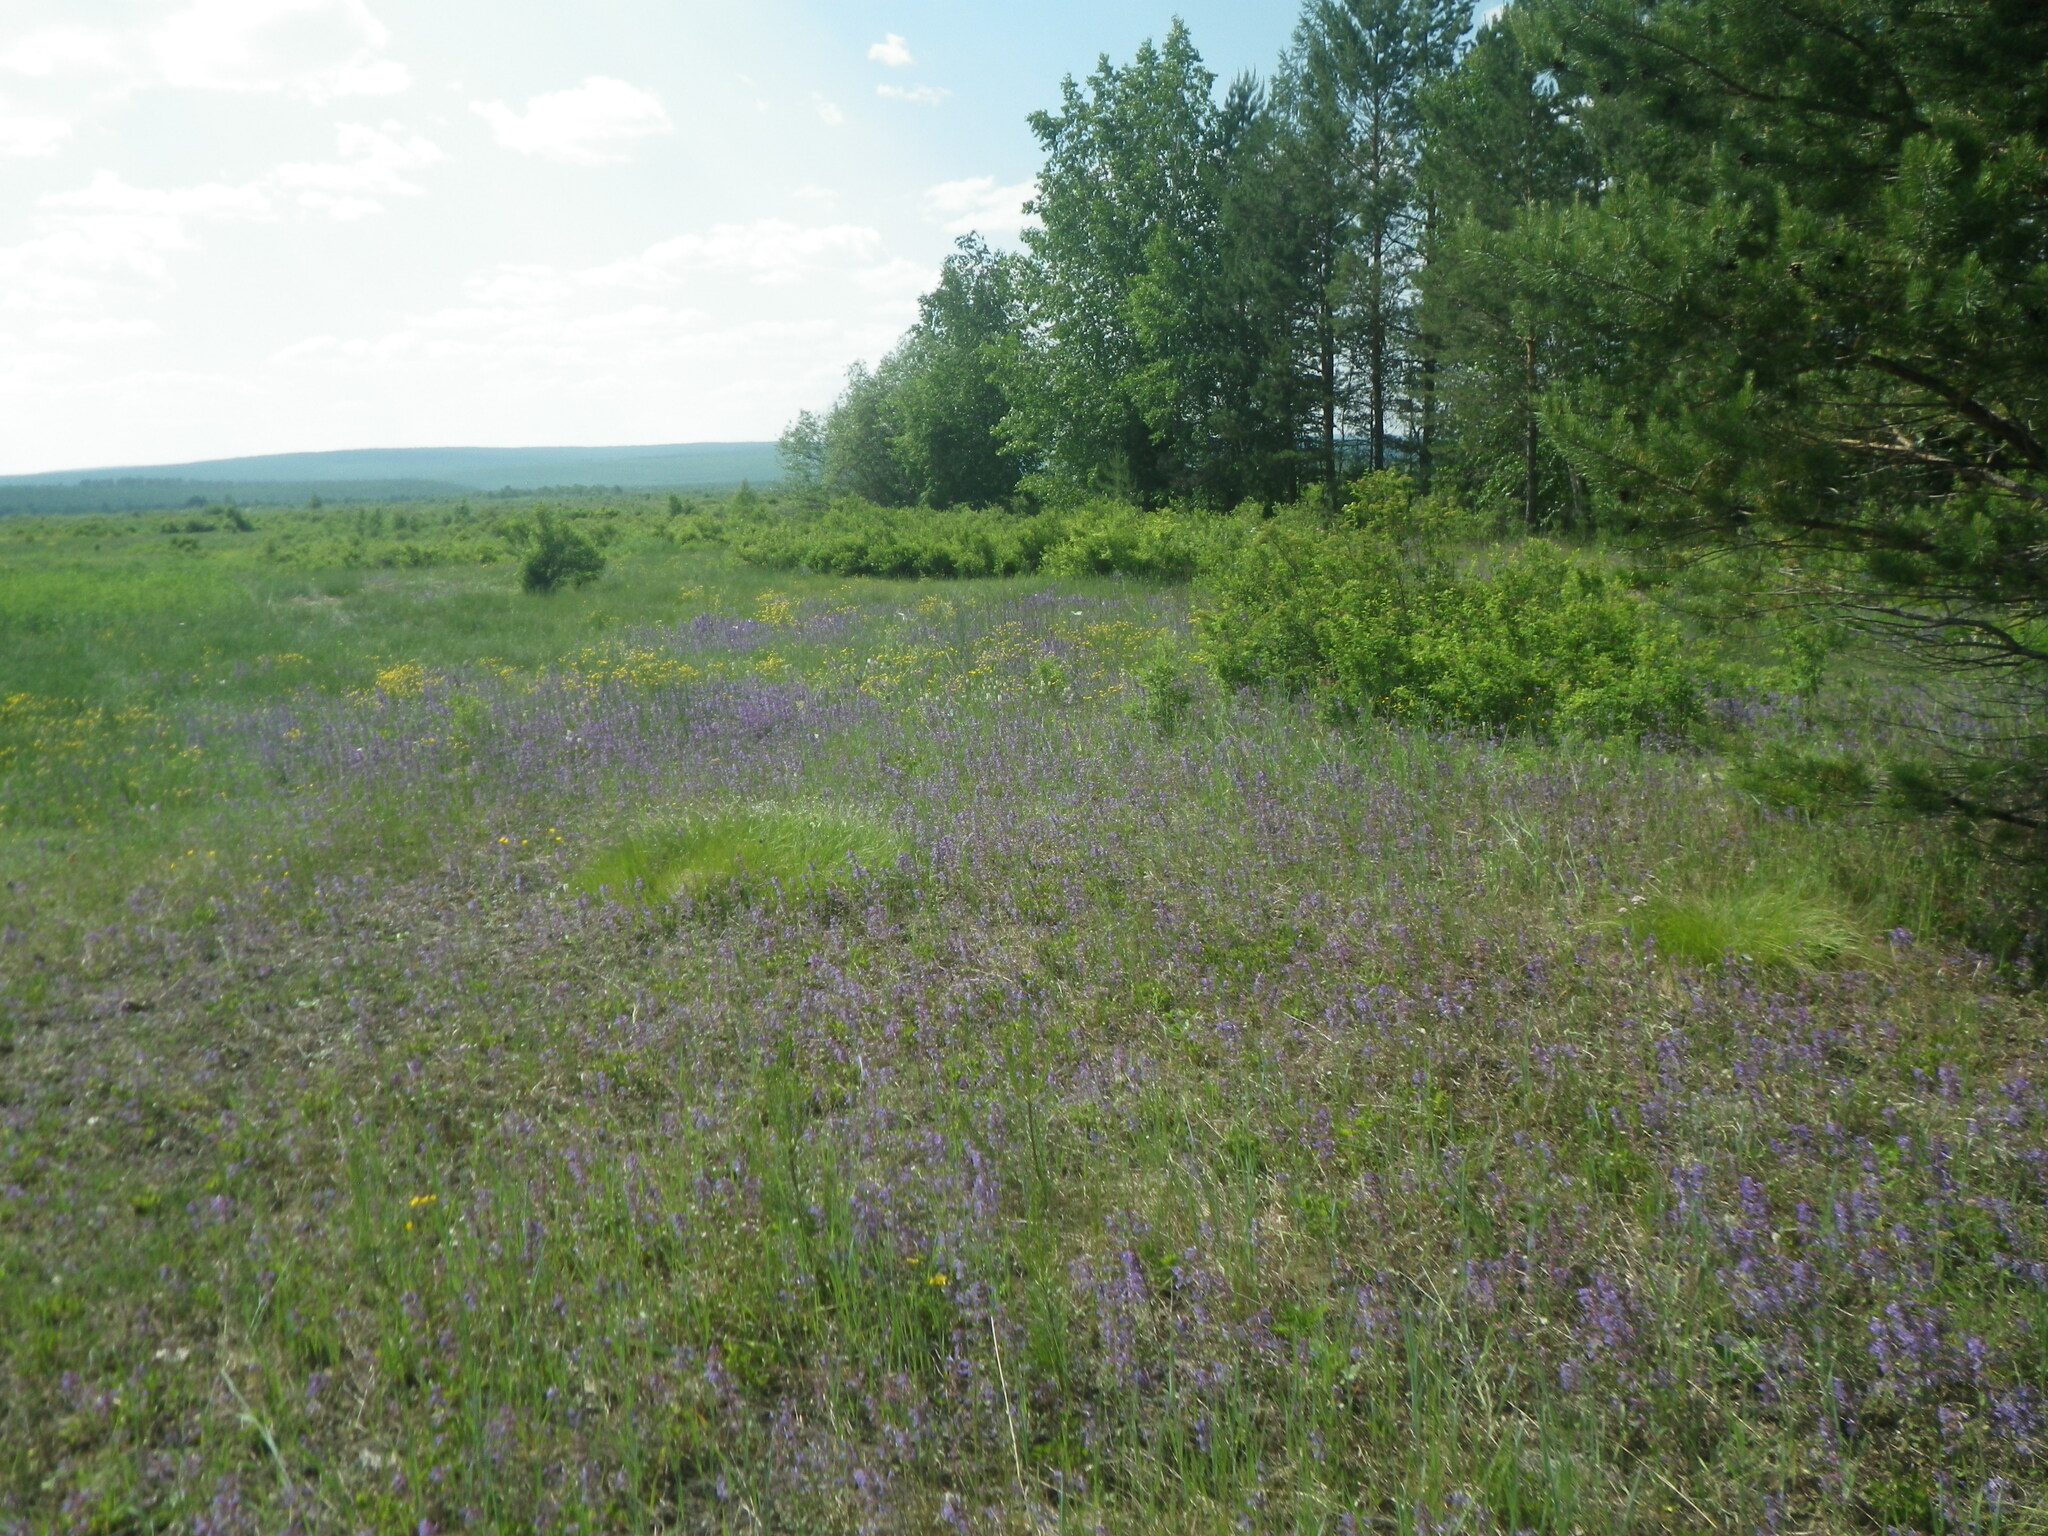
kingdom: Plantae
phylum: Tracheophyta
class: Pinopsida
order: Pinales
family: Pinaceae
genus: Pinus
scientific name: Pinus sylvestris
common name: Scots pine
